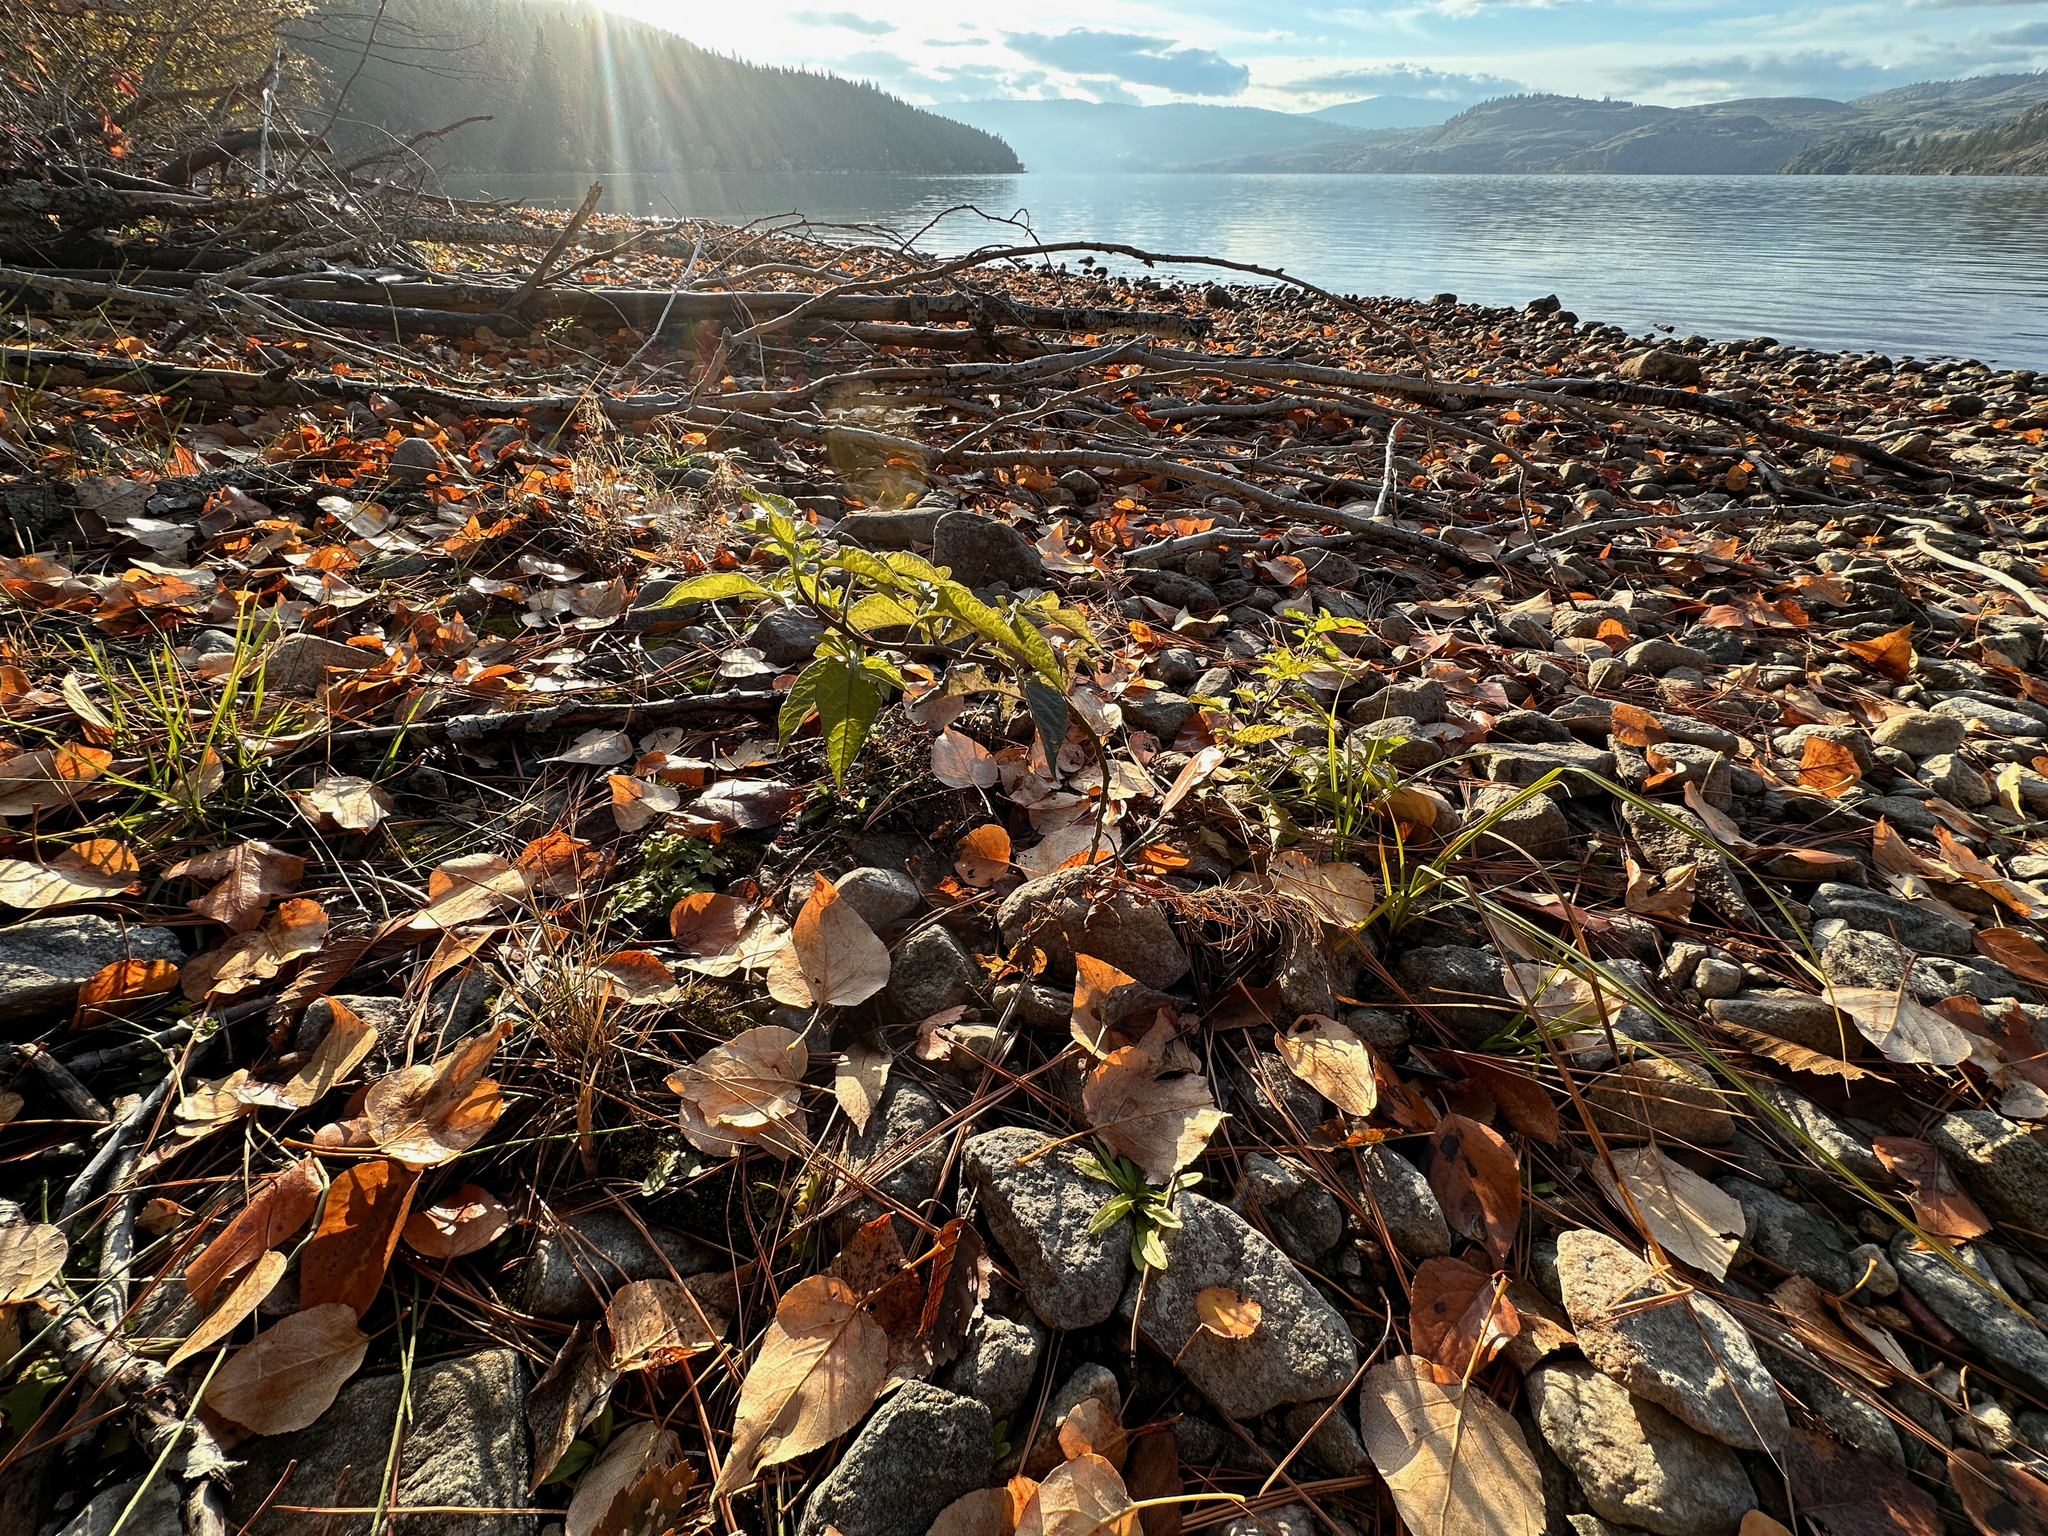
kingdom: Plantae
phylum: Tracheophyta
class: Magnoliopsida
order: Solanales
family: Solanaceae
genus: Solanum
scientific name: Solanum dulcamara
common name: Climbing nightshade
